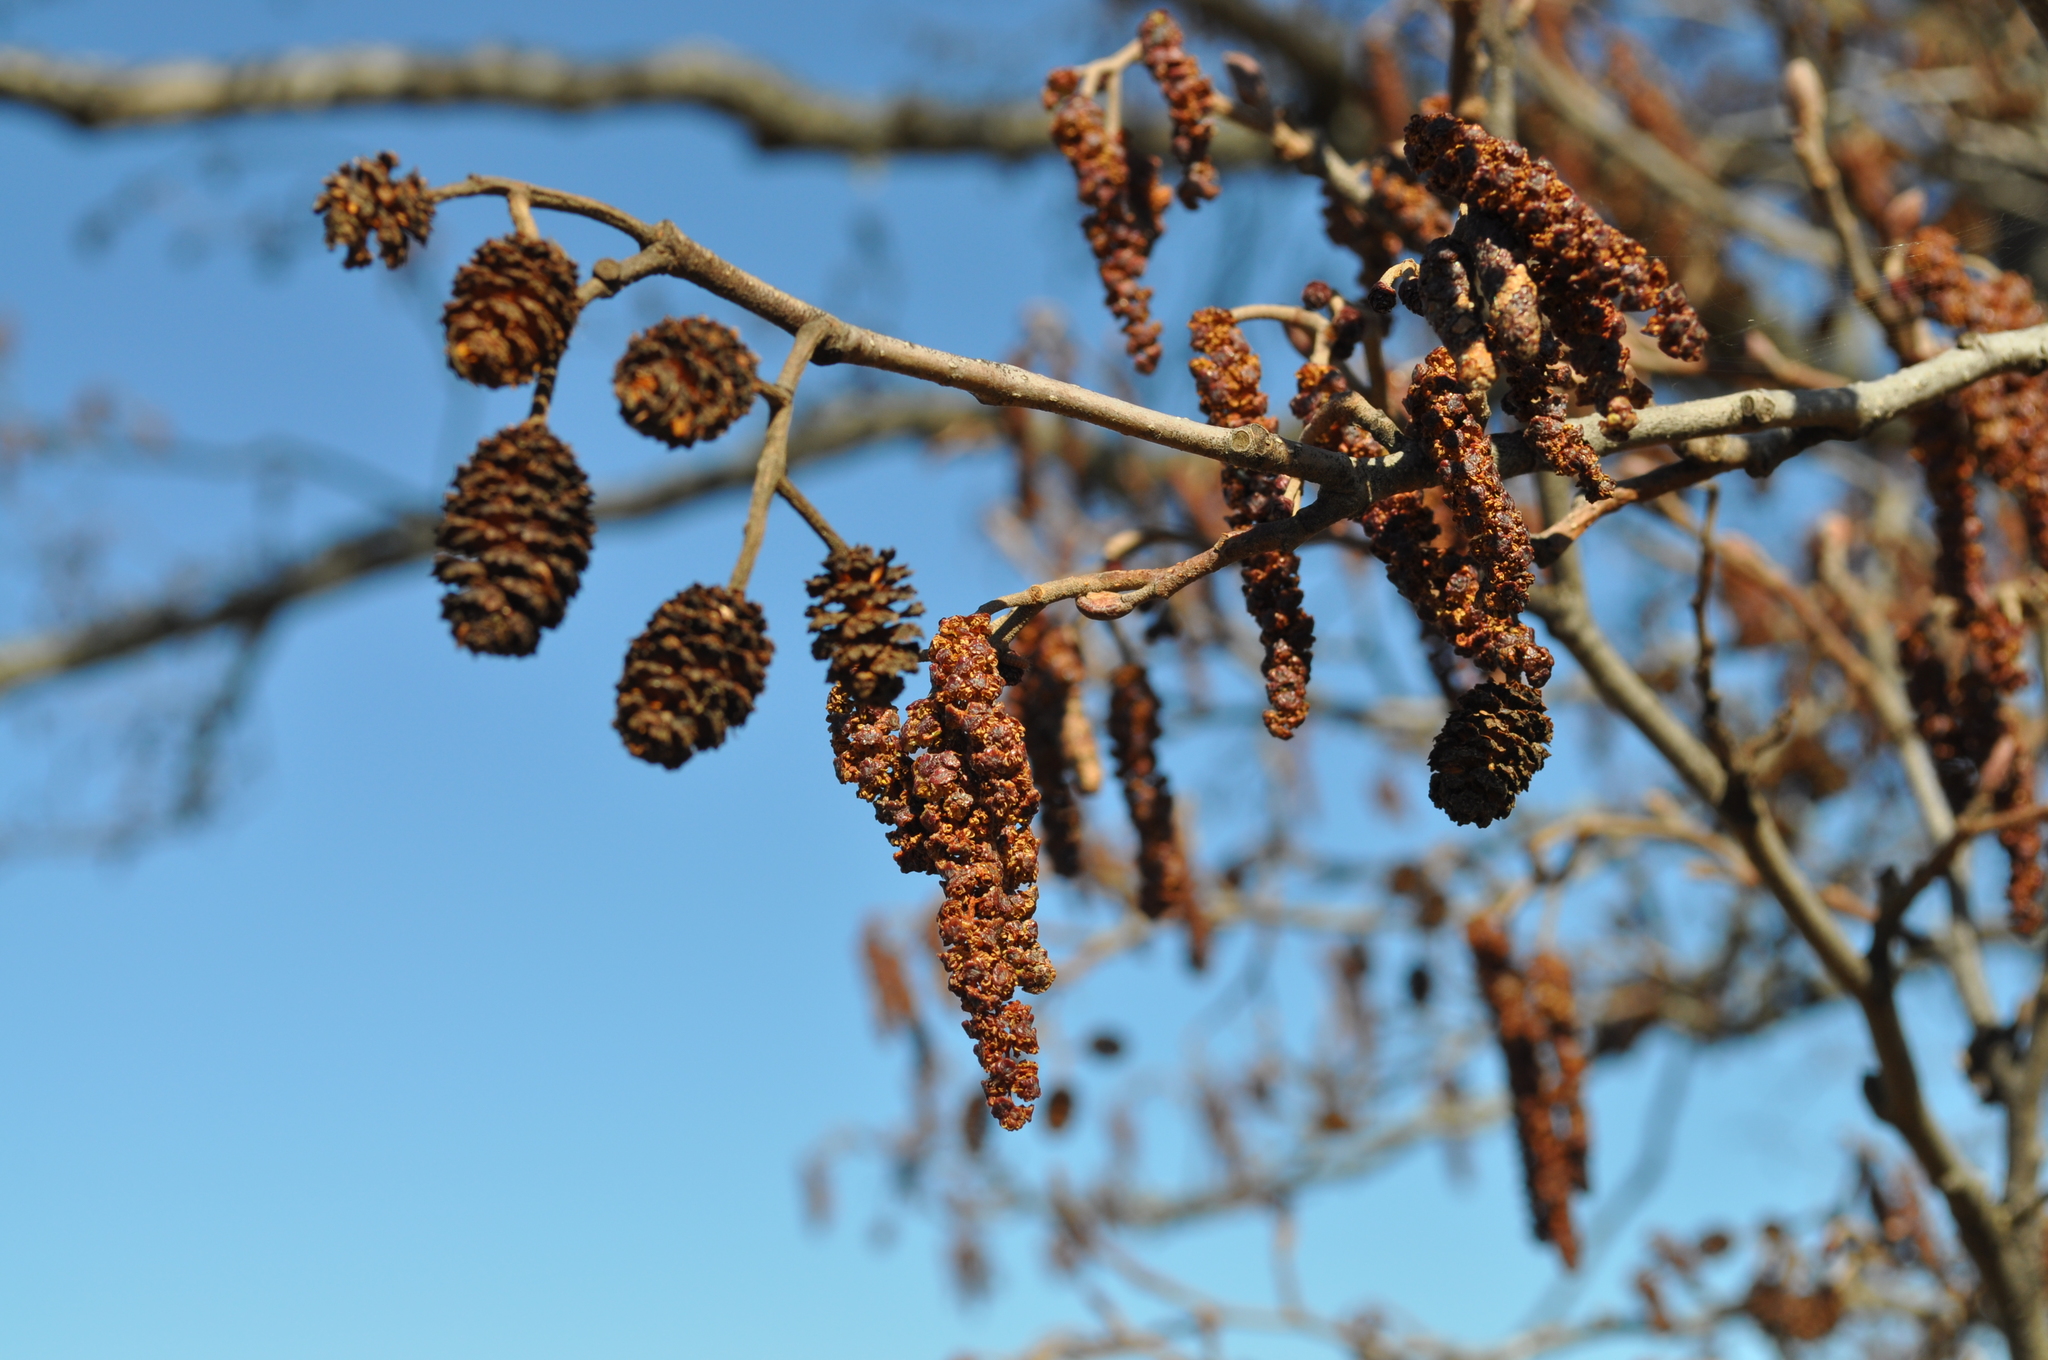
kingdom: Plantae
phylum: Tracheophyta
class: Magnoliopsida
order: Fagales
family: Betulaceae
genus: Alnus
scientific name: Alnus glutinosa
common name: Black alder
